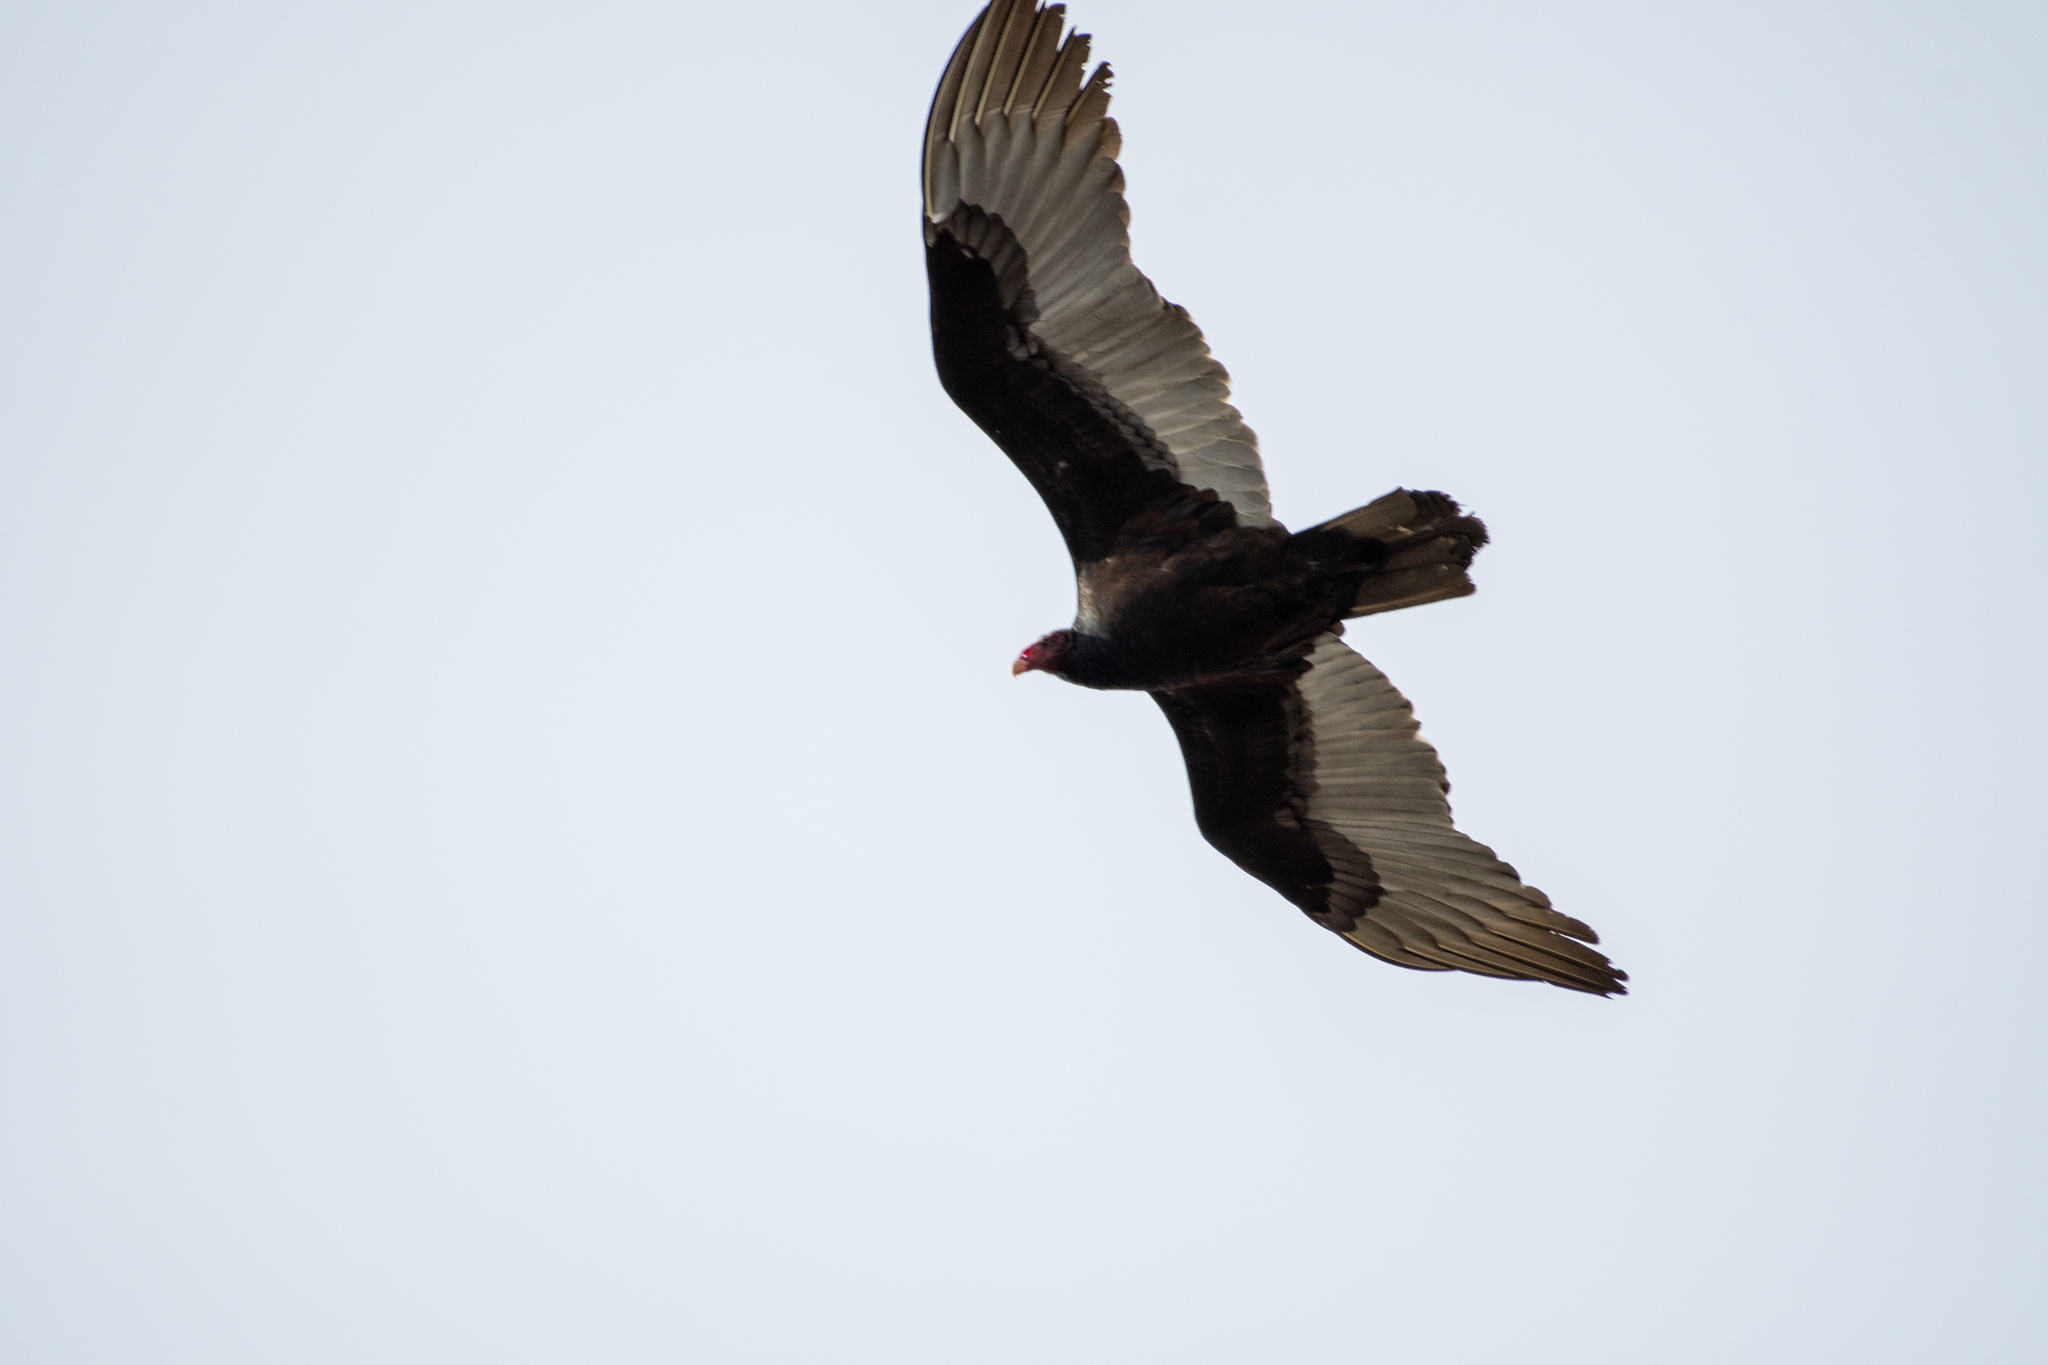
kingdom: Animalia
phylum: Chordata
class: Aves
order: Accipitriformes
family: Cathartidae
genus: Cathartes
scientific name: Cathartes aura
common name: Turkey vulture
